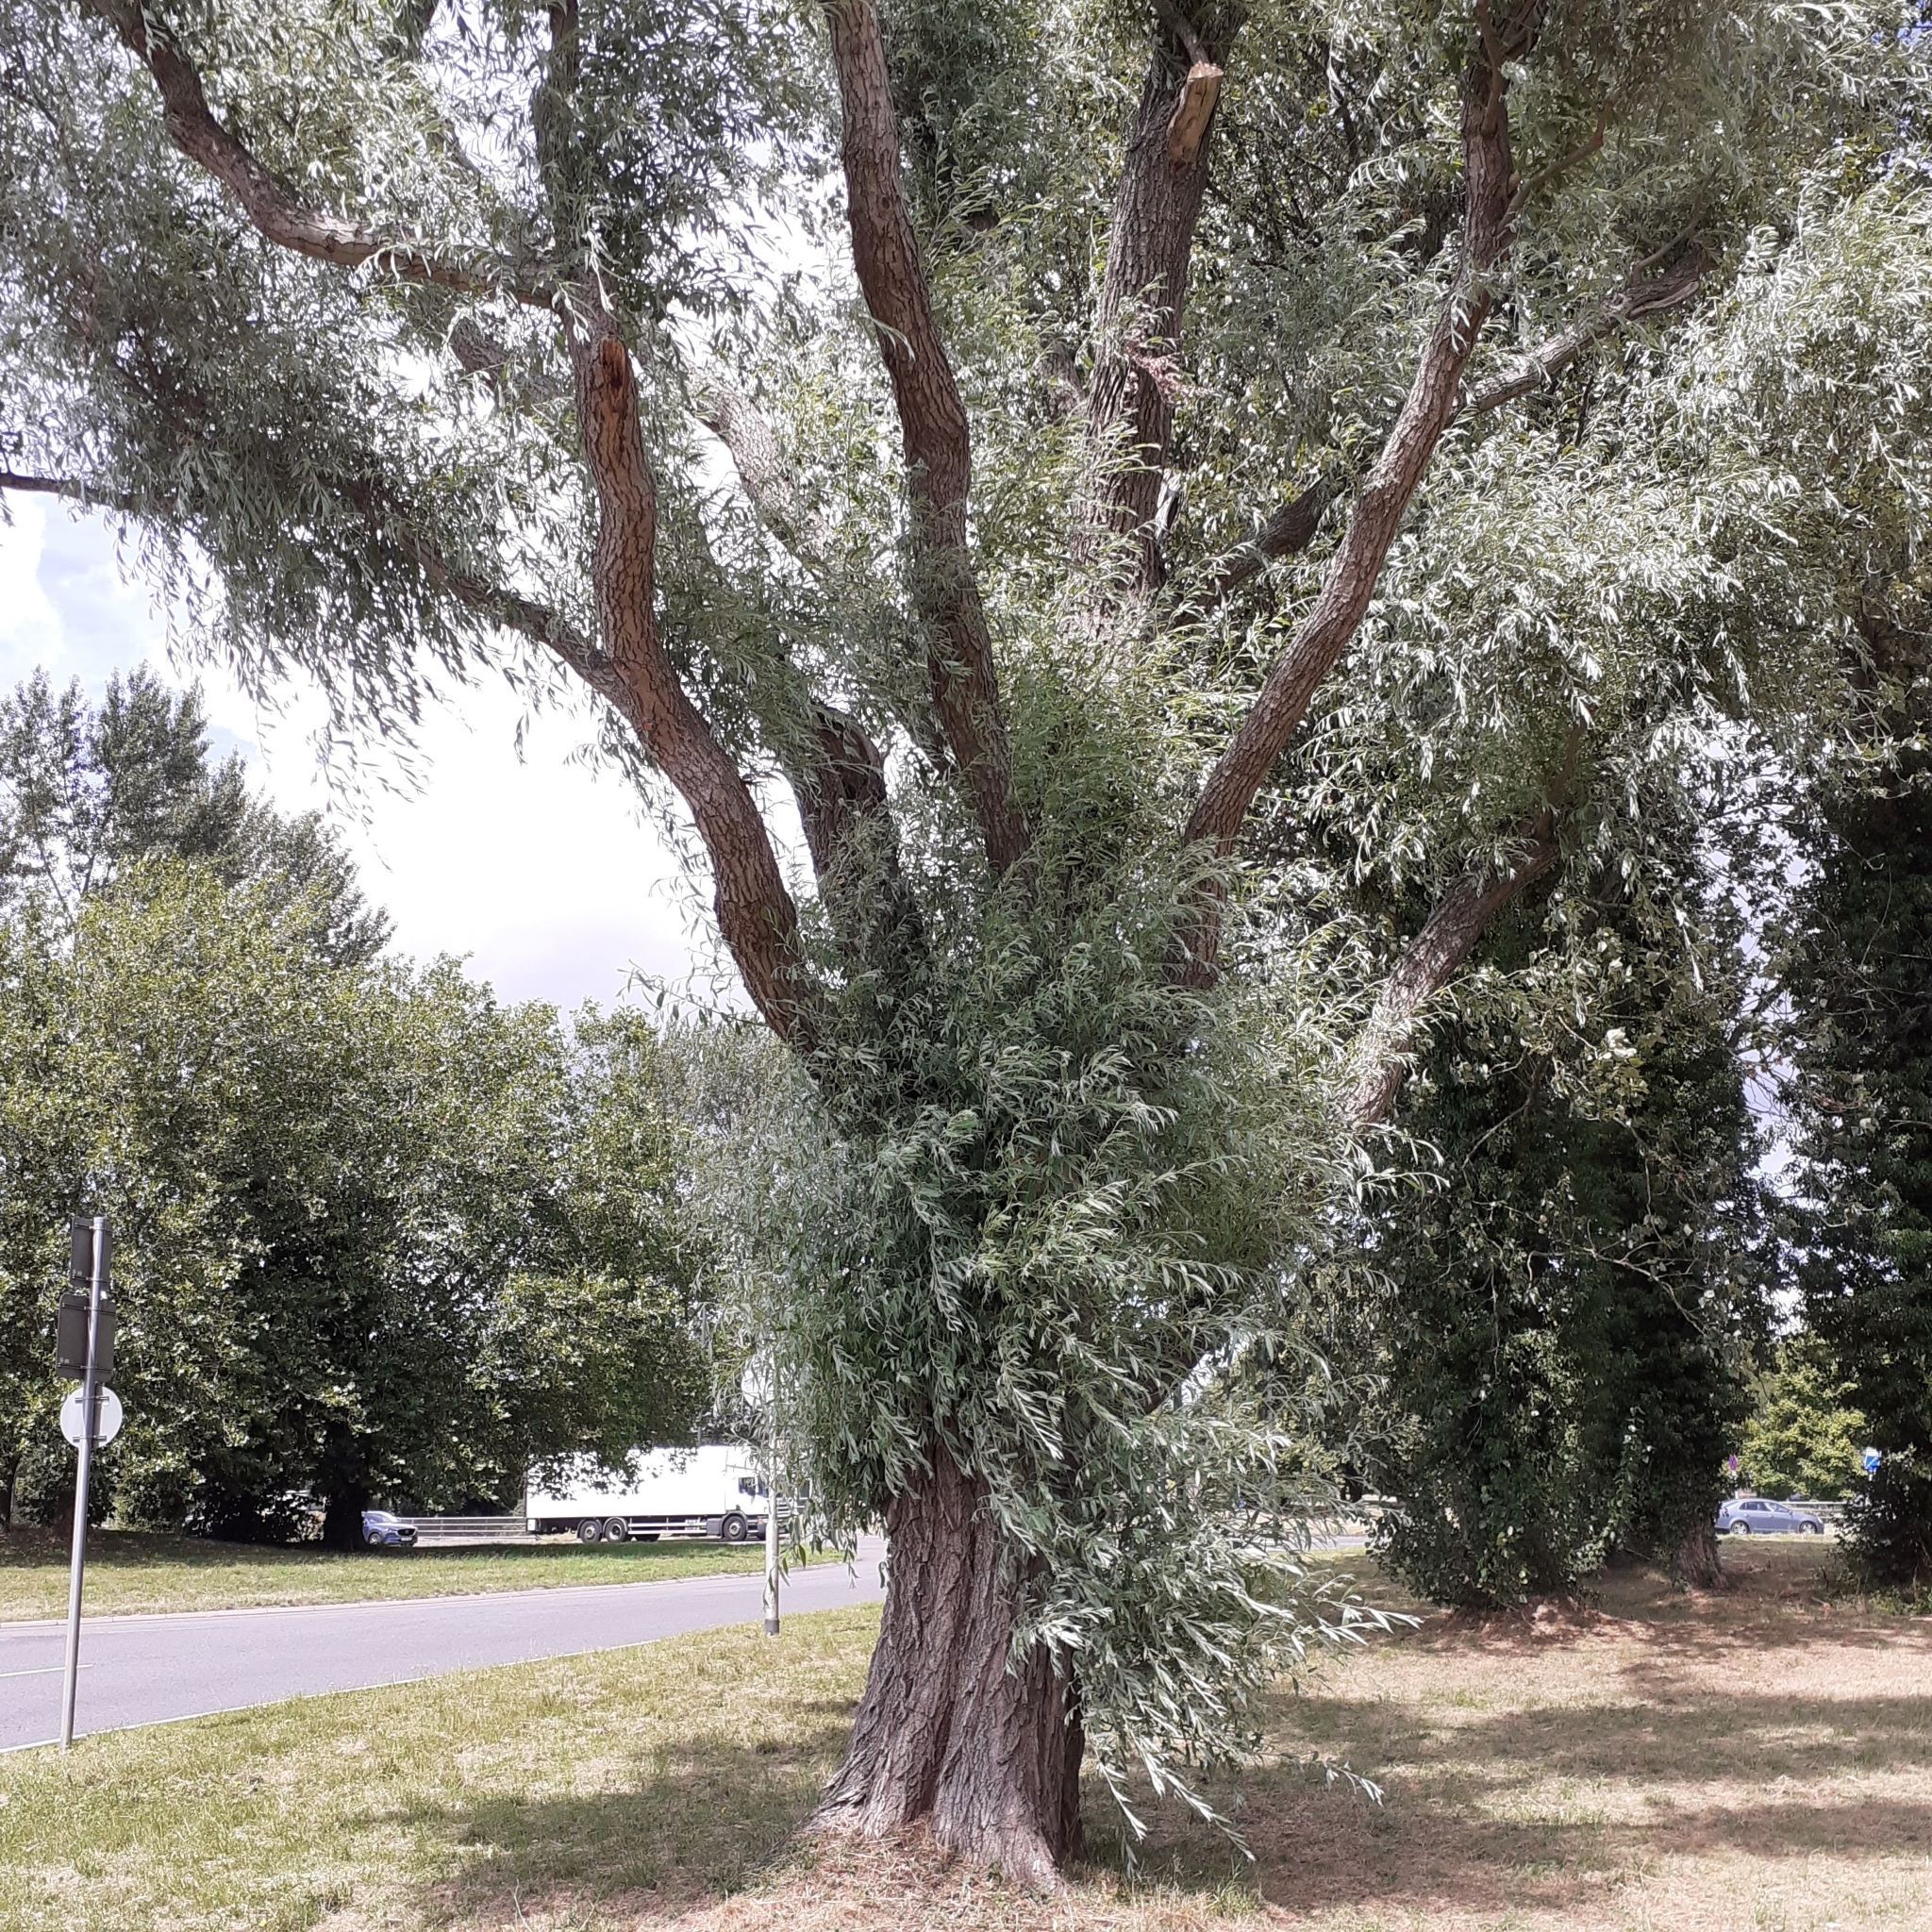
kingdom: Plantae
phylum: Tracheophyta
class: Magnoliopsida
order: Malpighiales
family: Salicaceae
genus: Salix
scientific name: Salix alba
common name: White willow
